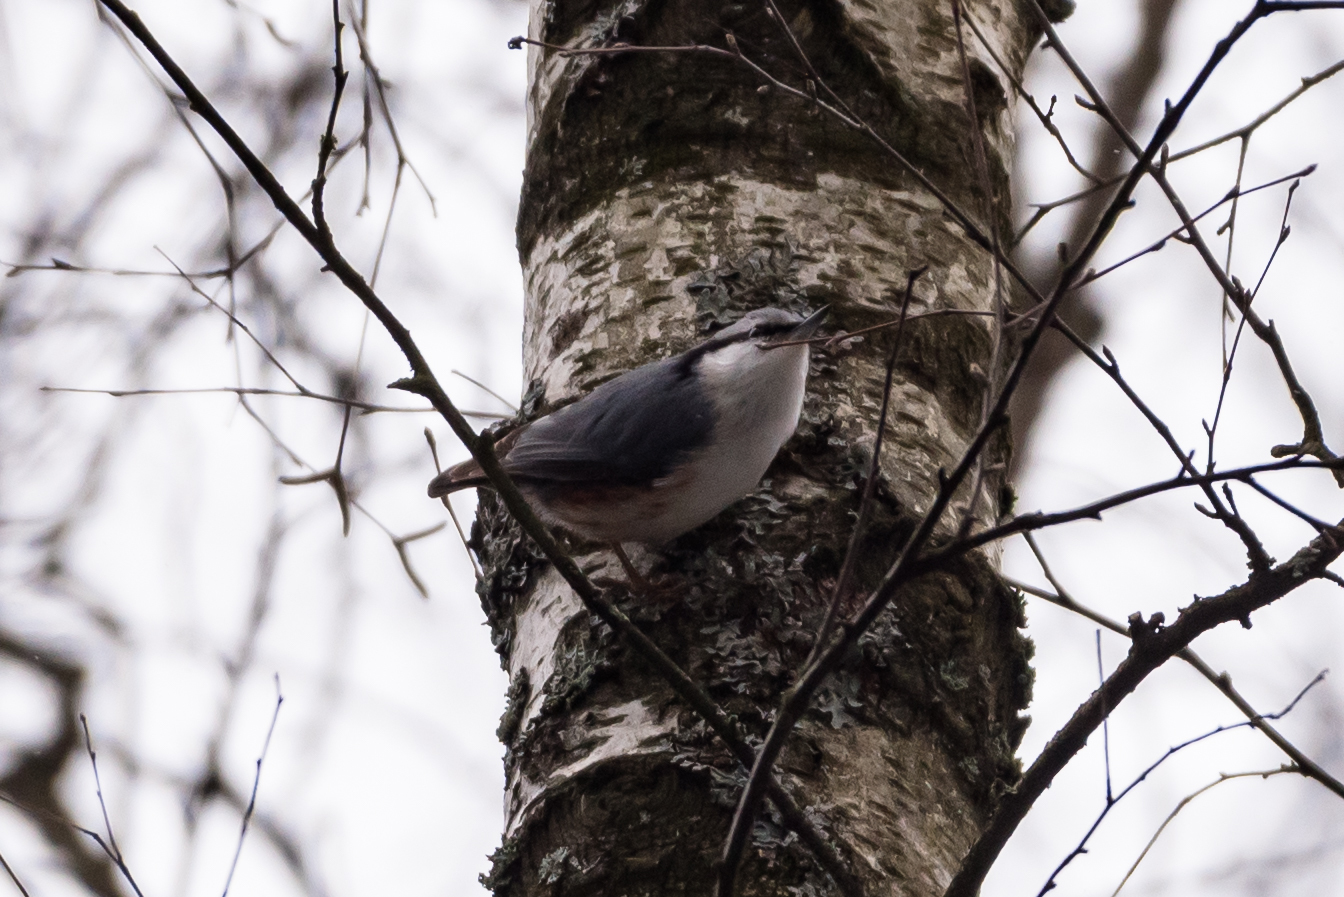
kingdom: Animalia
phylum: Chordata
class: Aves
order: Passeriformes
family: Sittidae
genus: Sitta
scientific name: Sitta europaea
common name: Eurasian nuthatch
